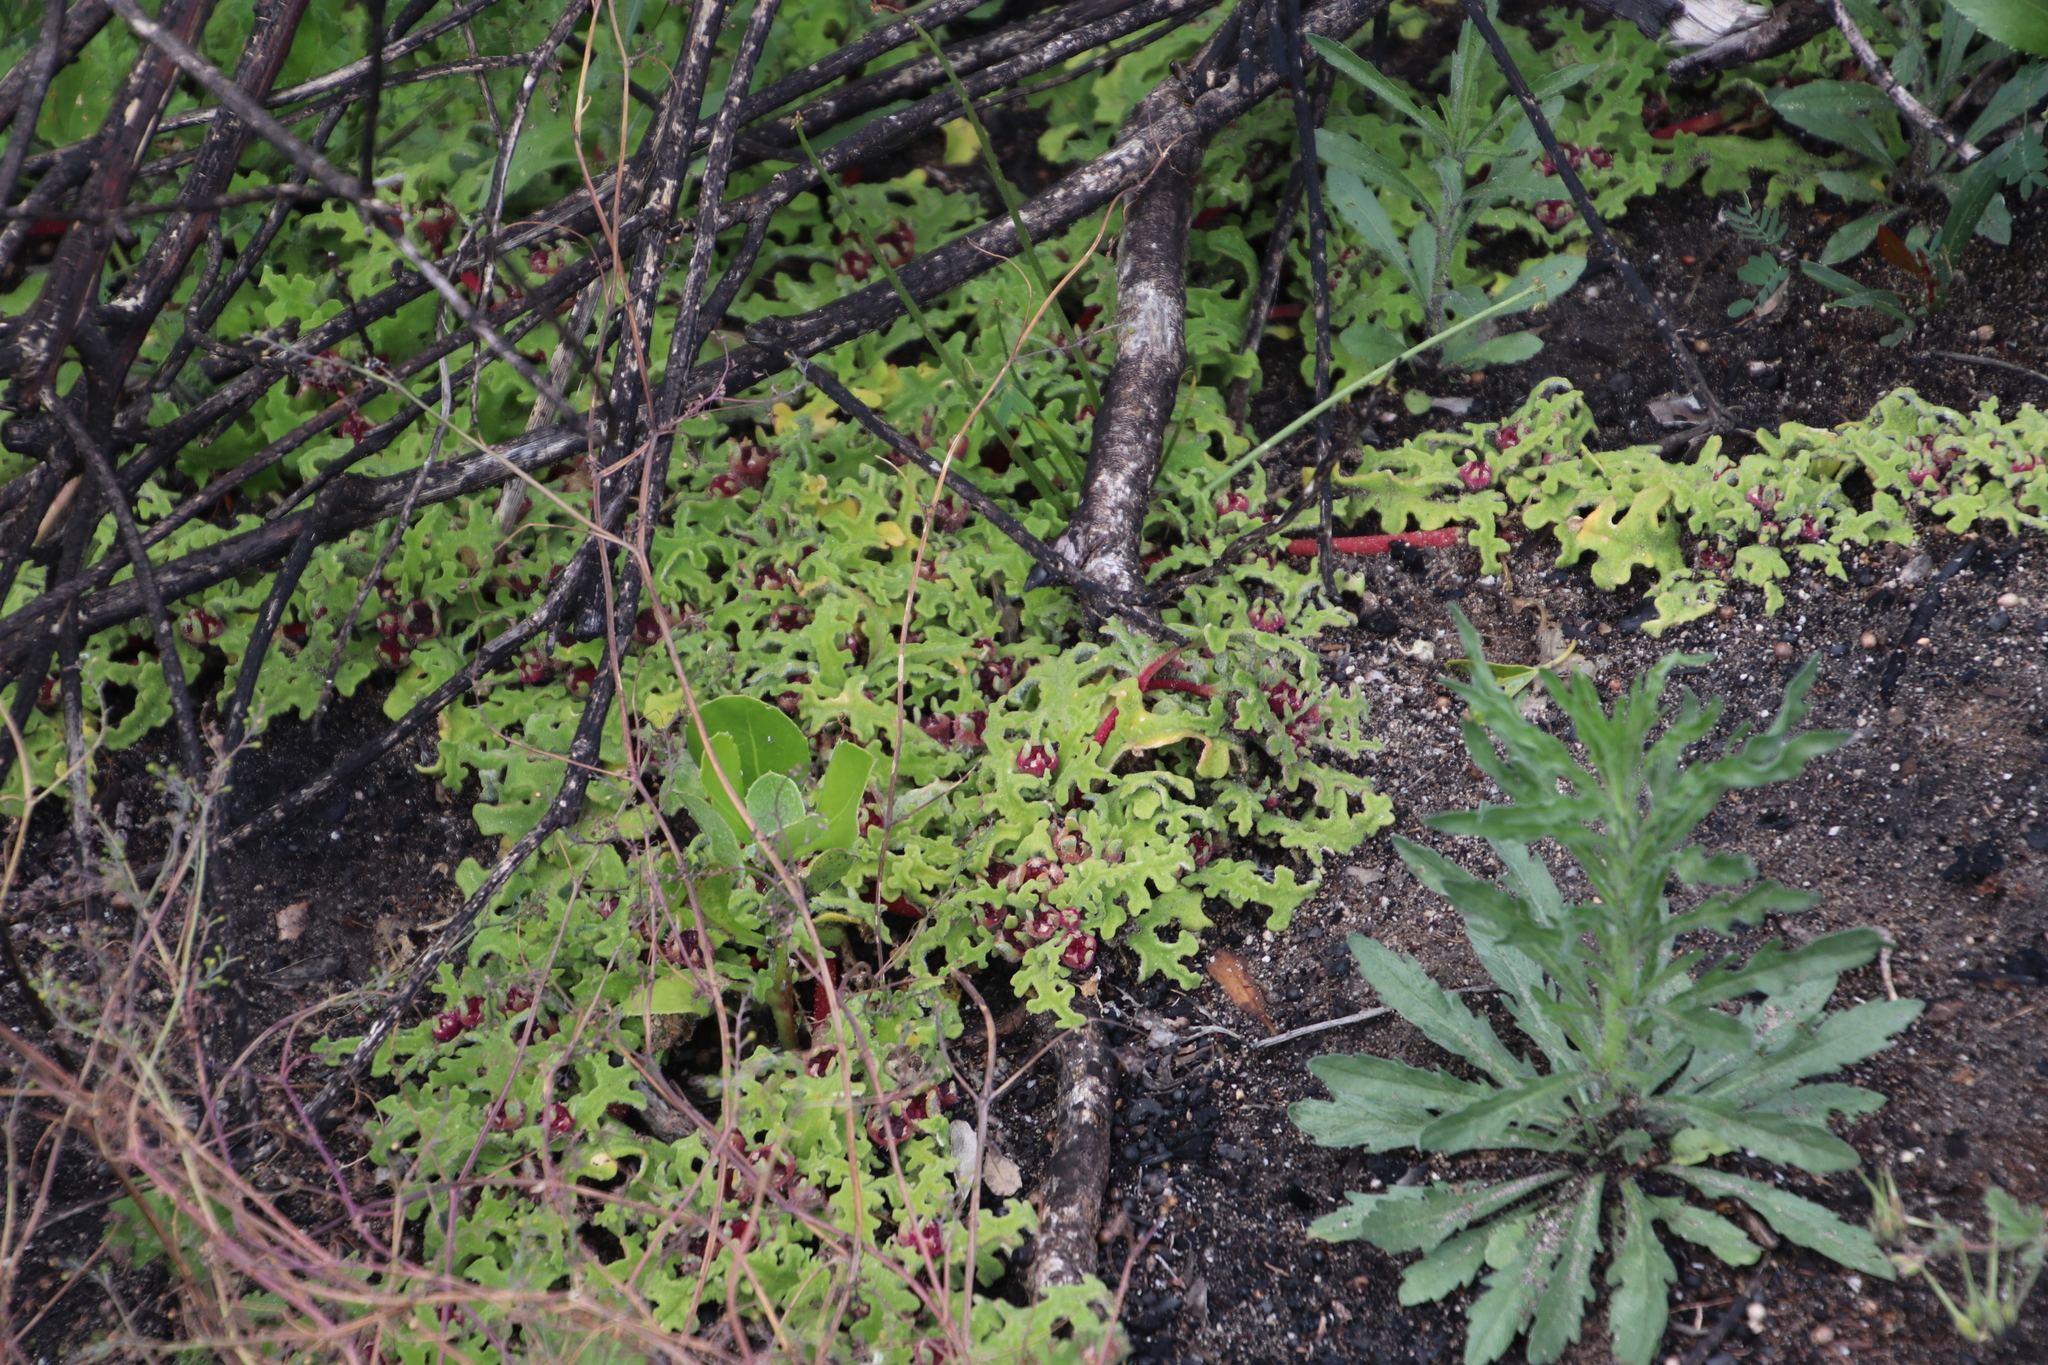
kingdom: Plantae
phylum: Tracheophyta
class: Magnoliopsida
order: Caryophyllales
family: Aizoaceae
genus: Cleretum
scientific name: Cleretum herrei
